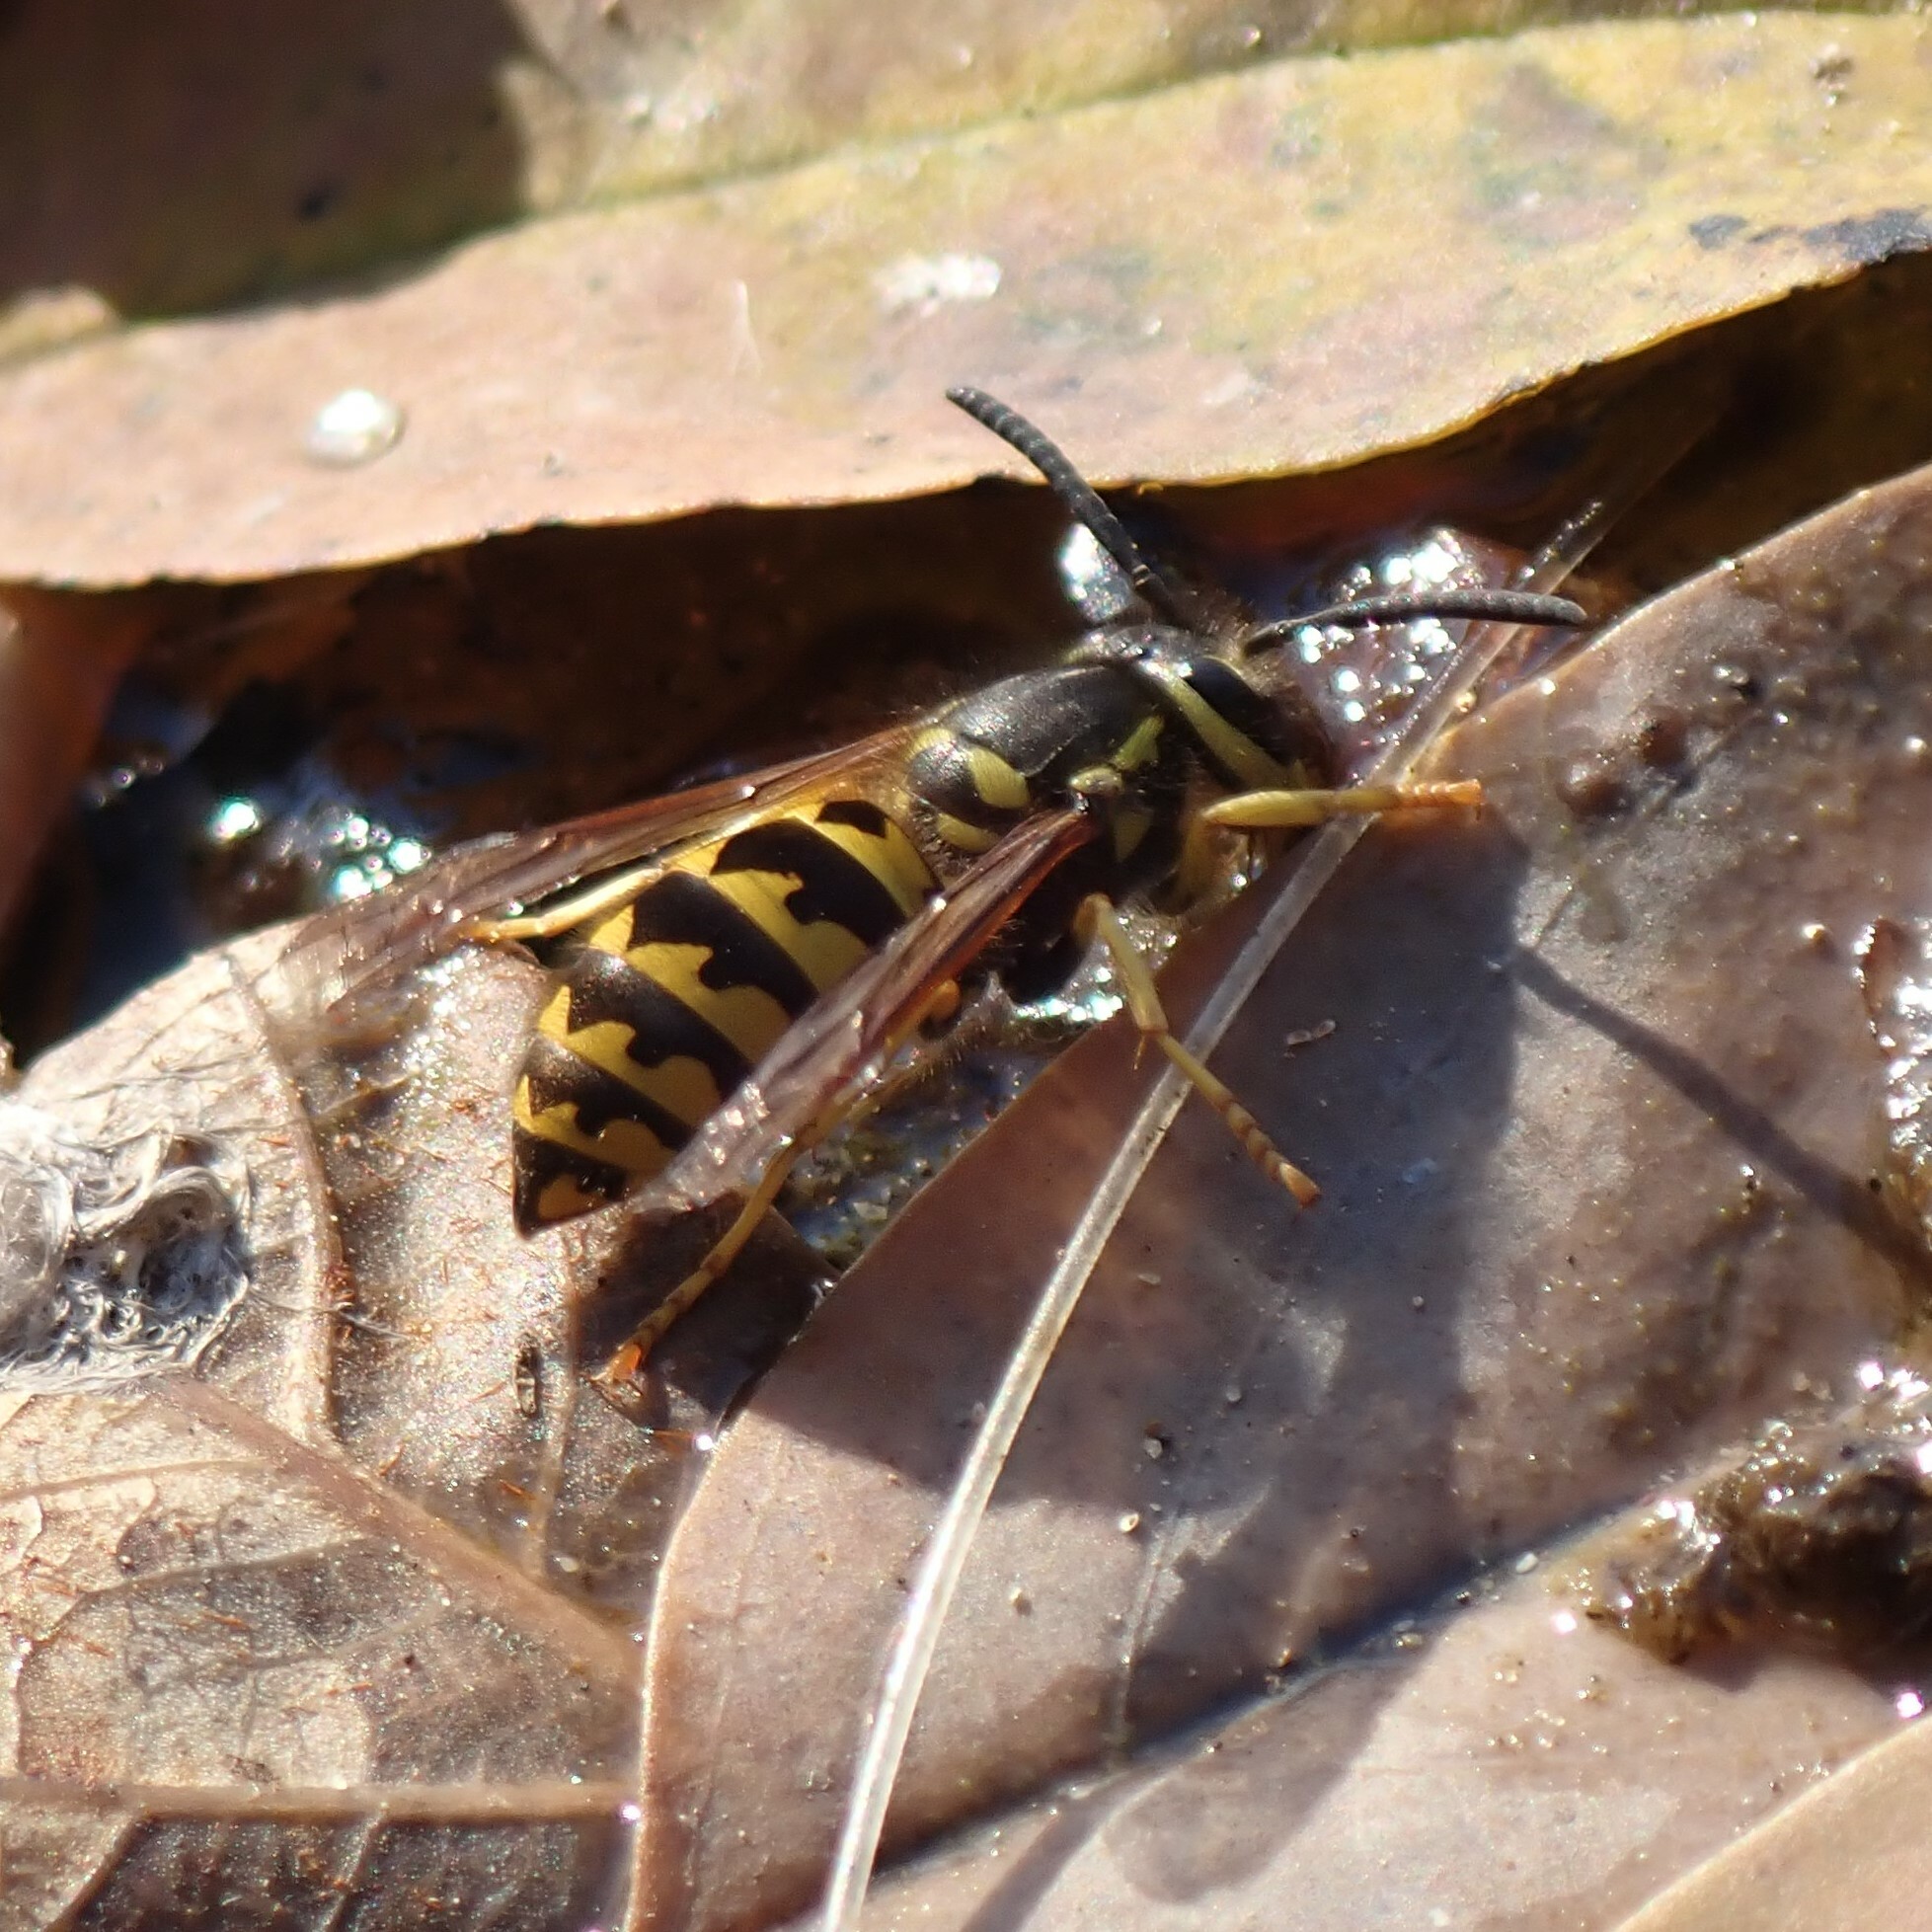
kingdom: Animalia
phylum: Arthropoda
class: Insecta
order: Hymenoptera
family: Vespidae
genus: Vespula
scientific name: Vespula pensylvanica
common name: Western yellowjacket
